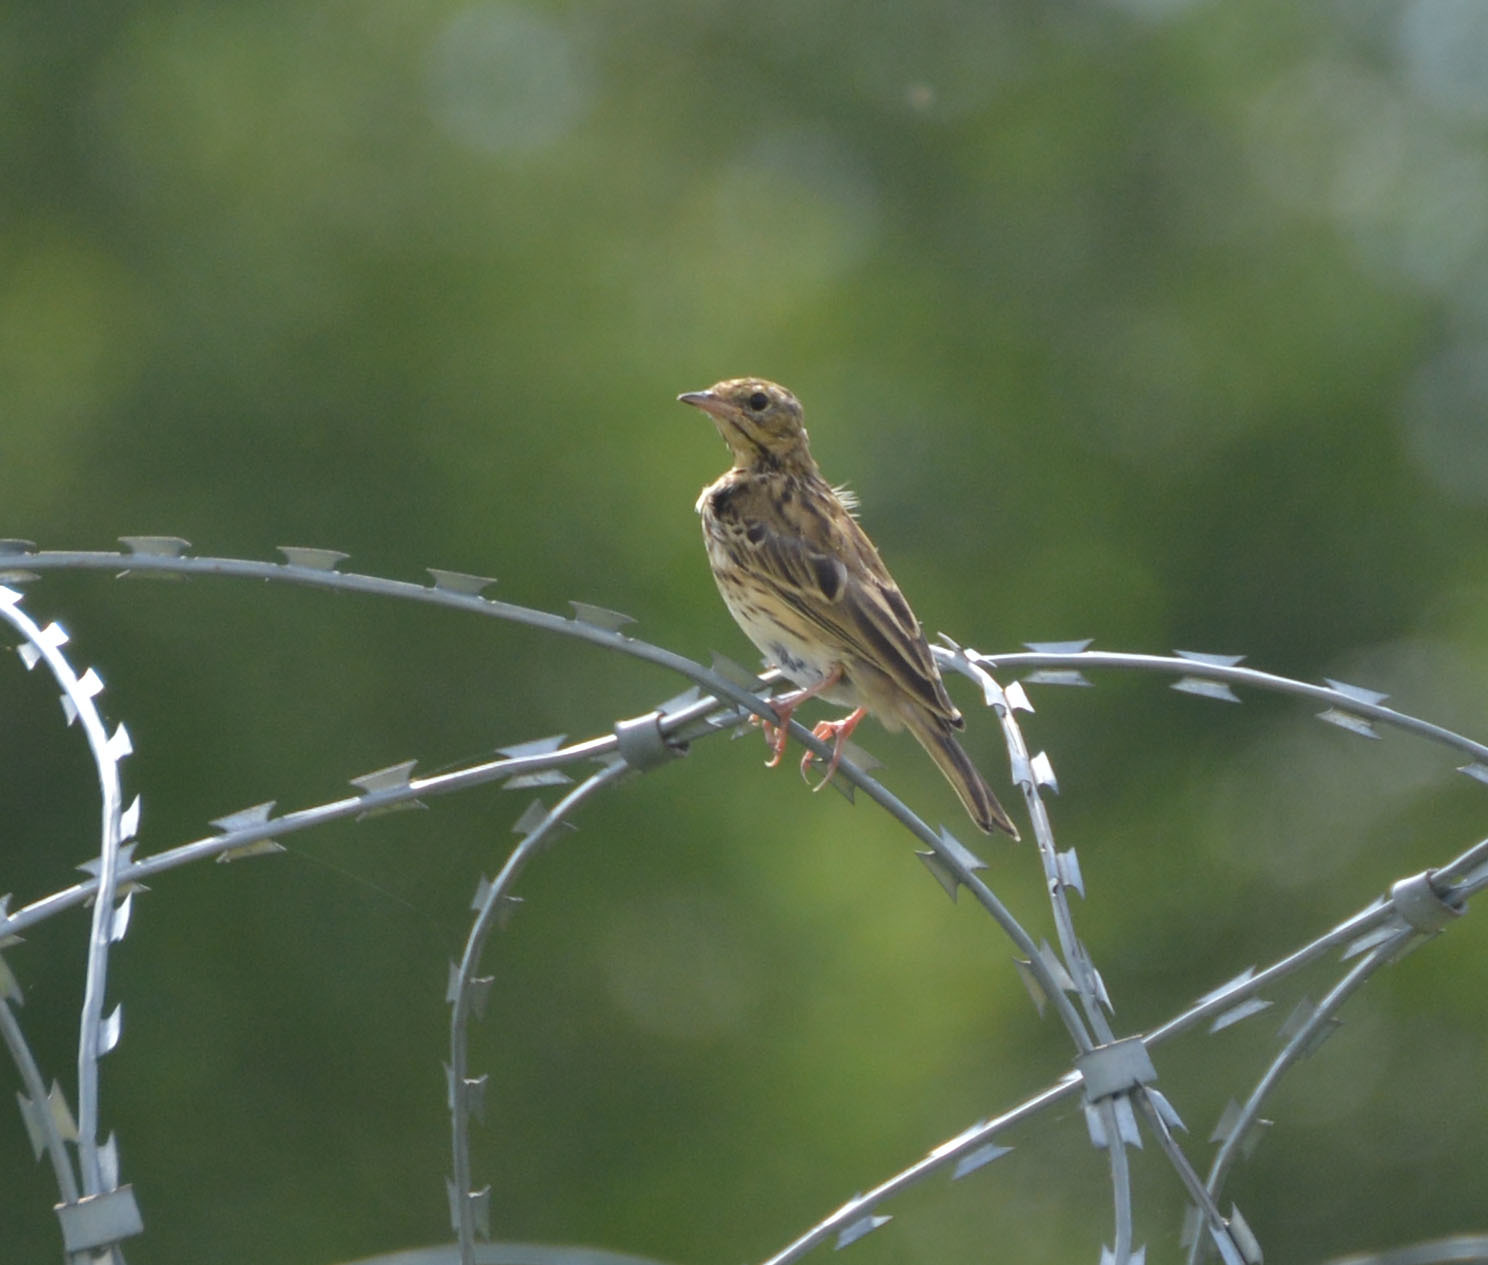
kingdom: Animalia
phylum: Chordata
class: Aves
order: Passeriformes
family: Motacillidae
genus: Anthus
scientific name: Anthus trivialis
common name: Tree pipit
